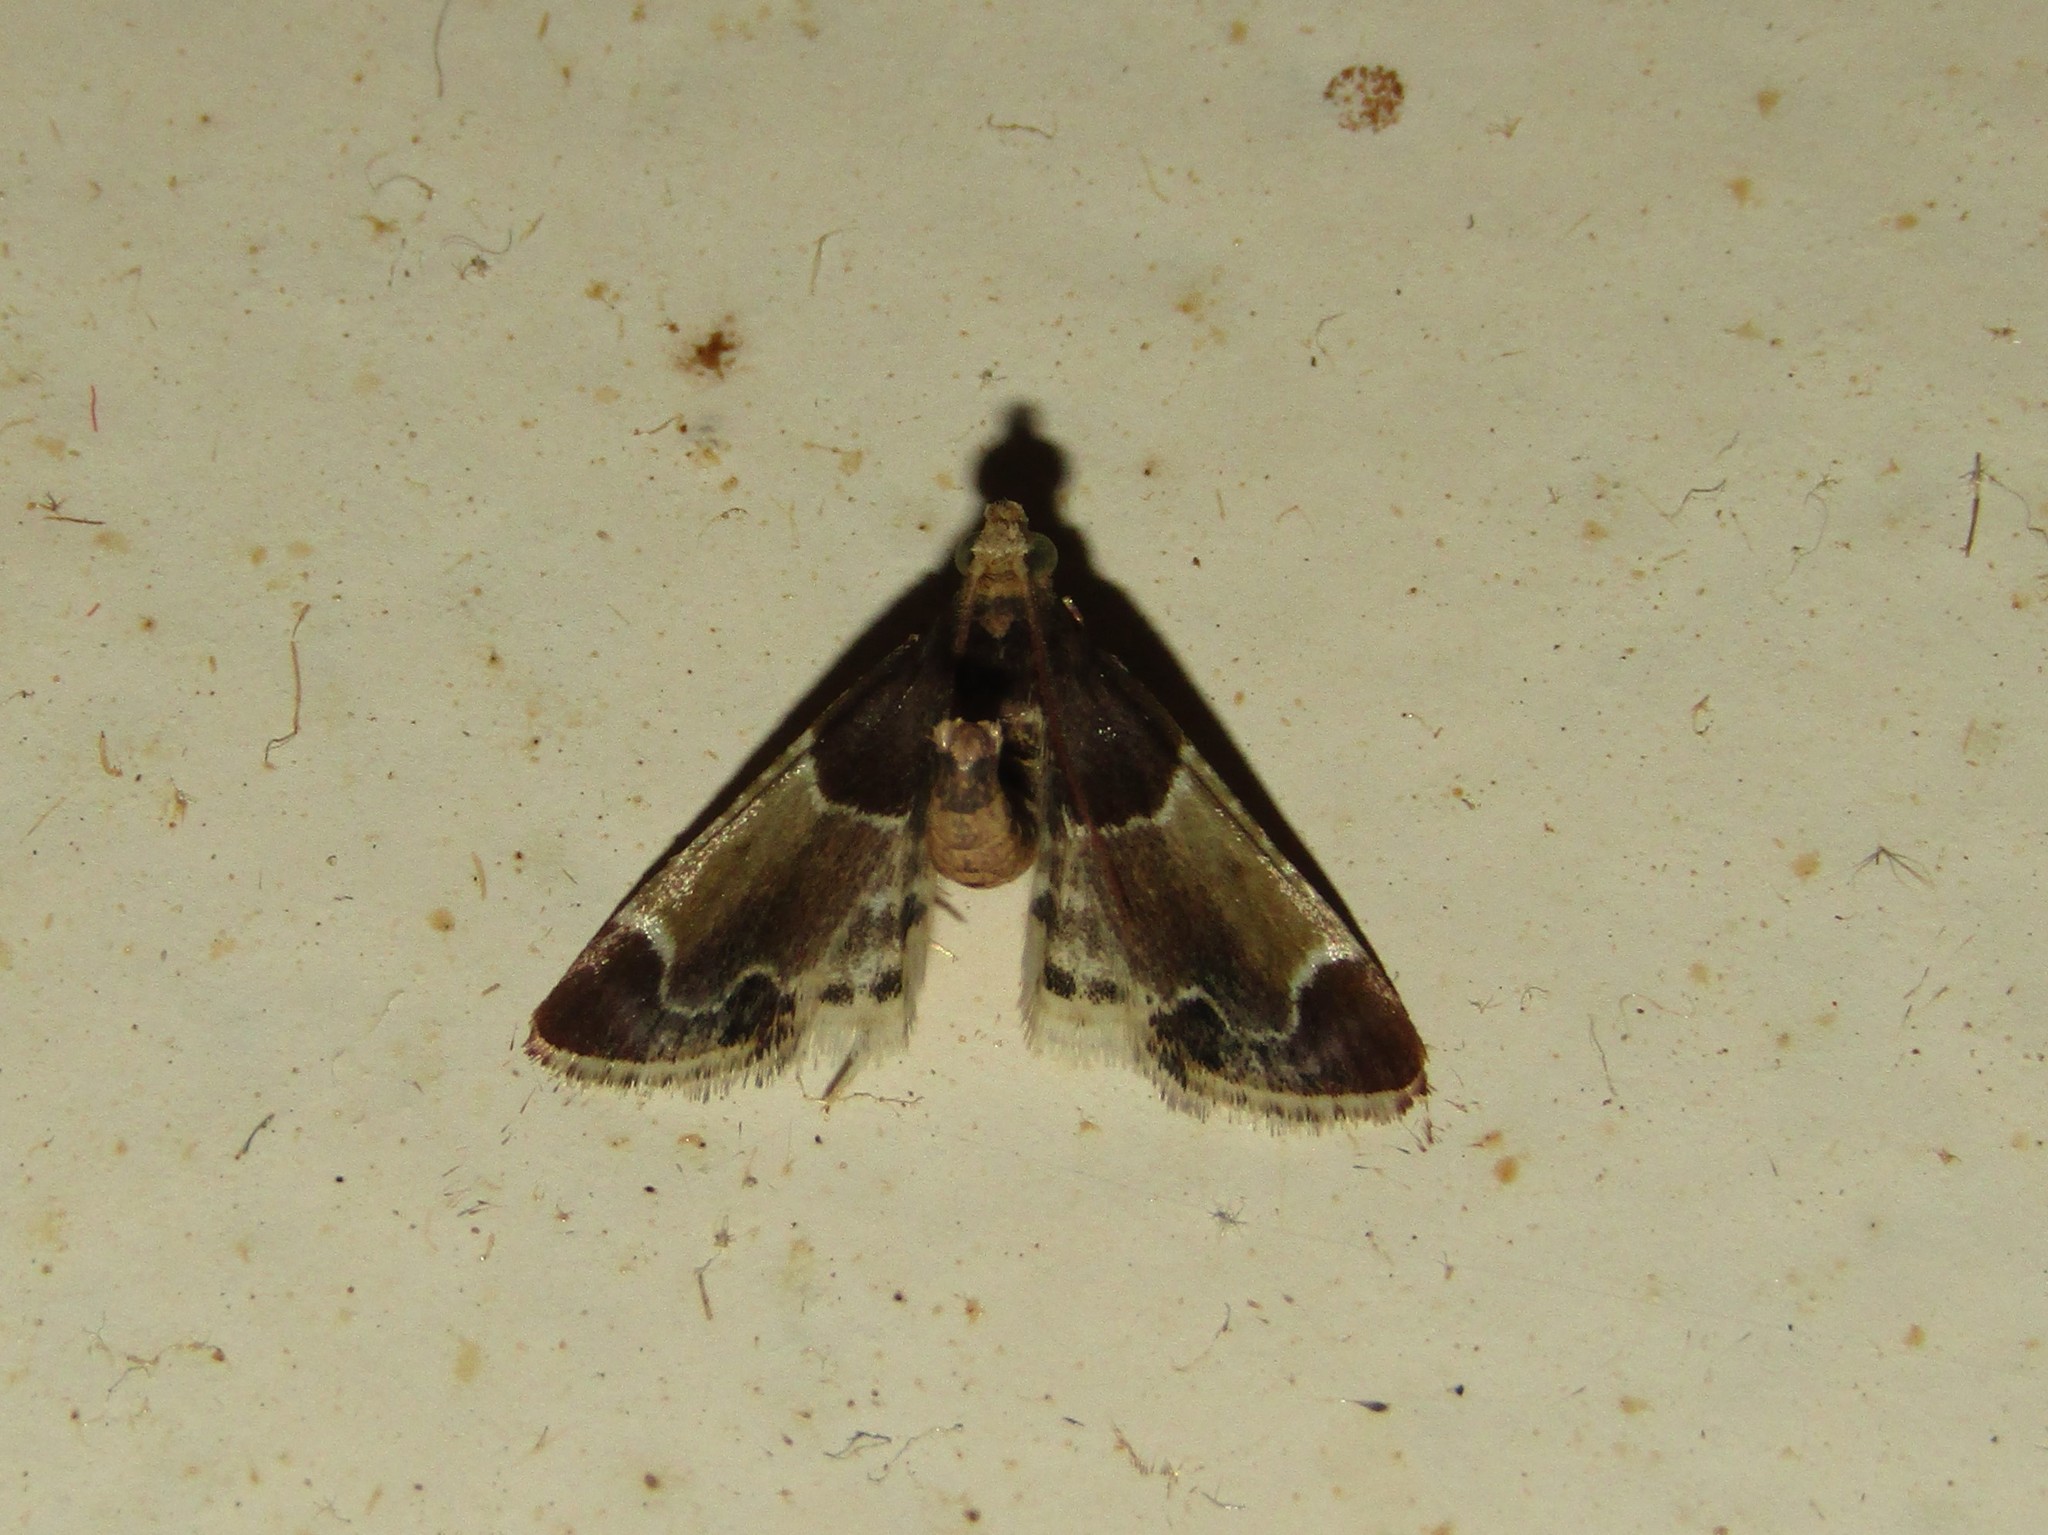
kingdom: Animalia
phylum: Arthropoda
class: Insecta
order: Lepidoptera
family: Pyralidae
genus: Pyralis
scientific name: Pyralis farinalis
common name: Meal moth
